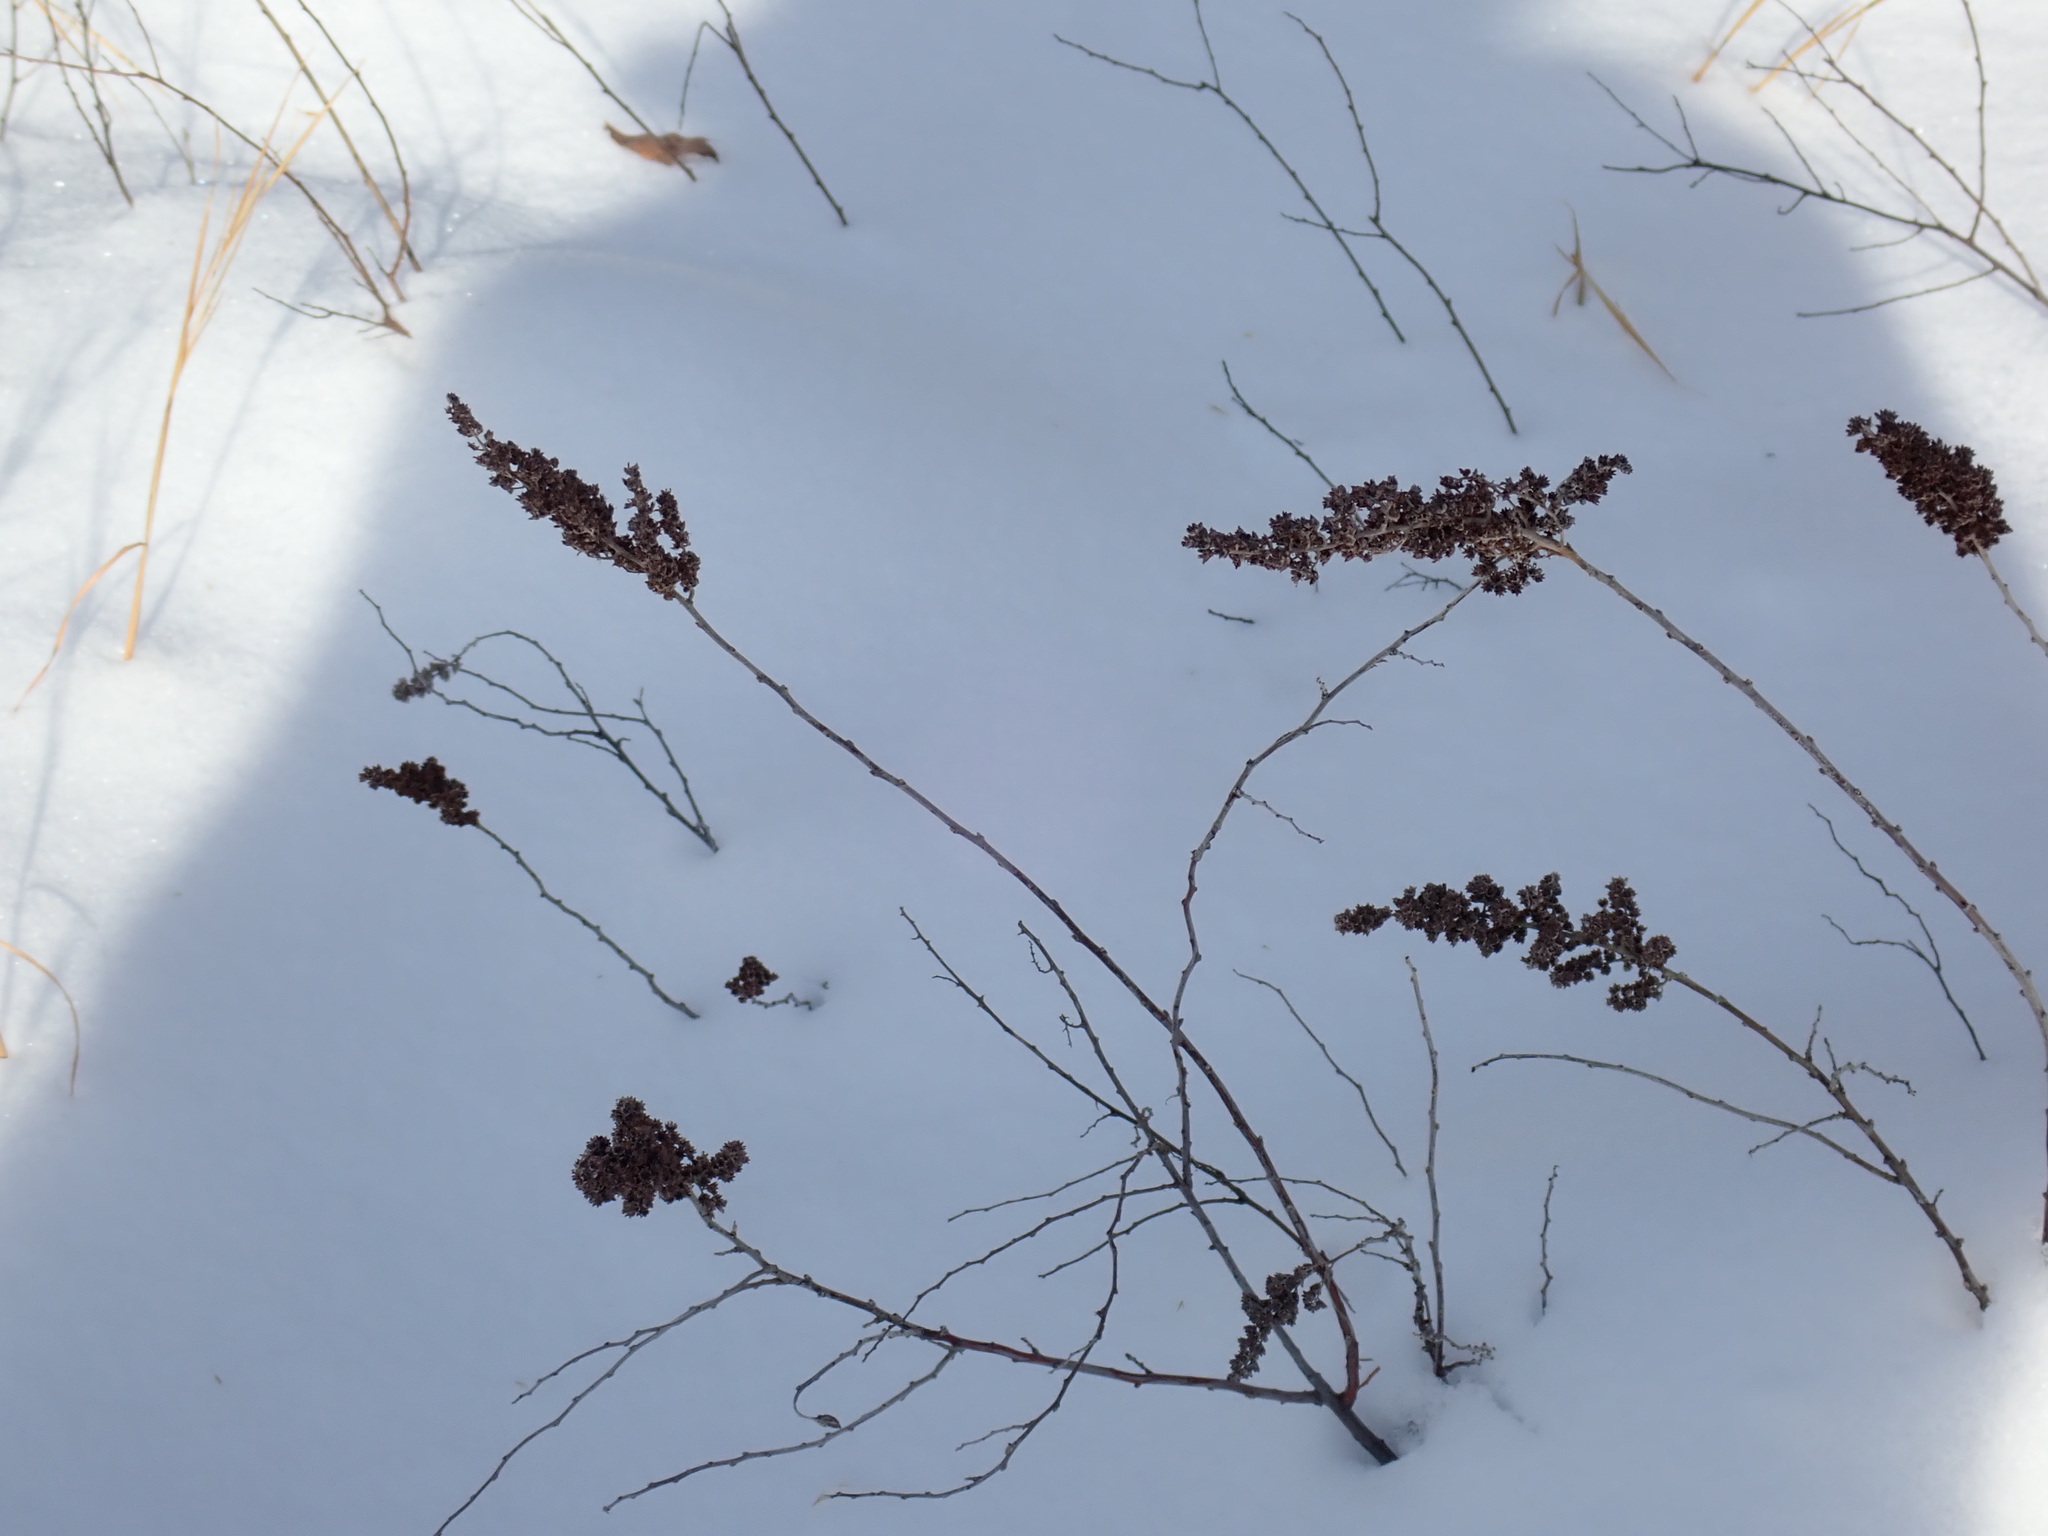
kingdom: Plantae
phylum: Tracheophyta
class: Magnoliopsida
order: Rosales
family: Rosaceae
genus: Spiraea
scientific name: Spiraea tomentosa
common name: Hardhack
